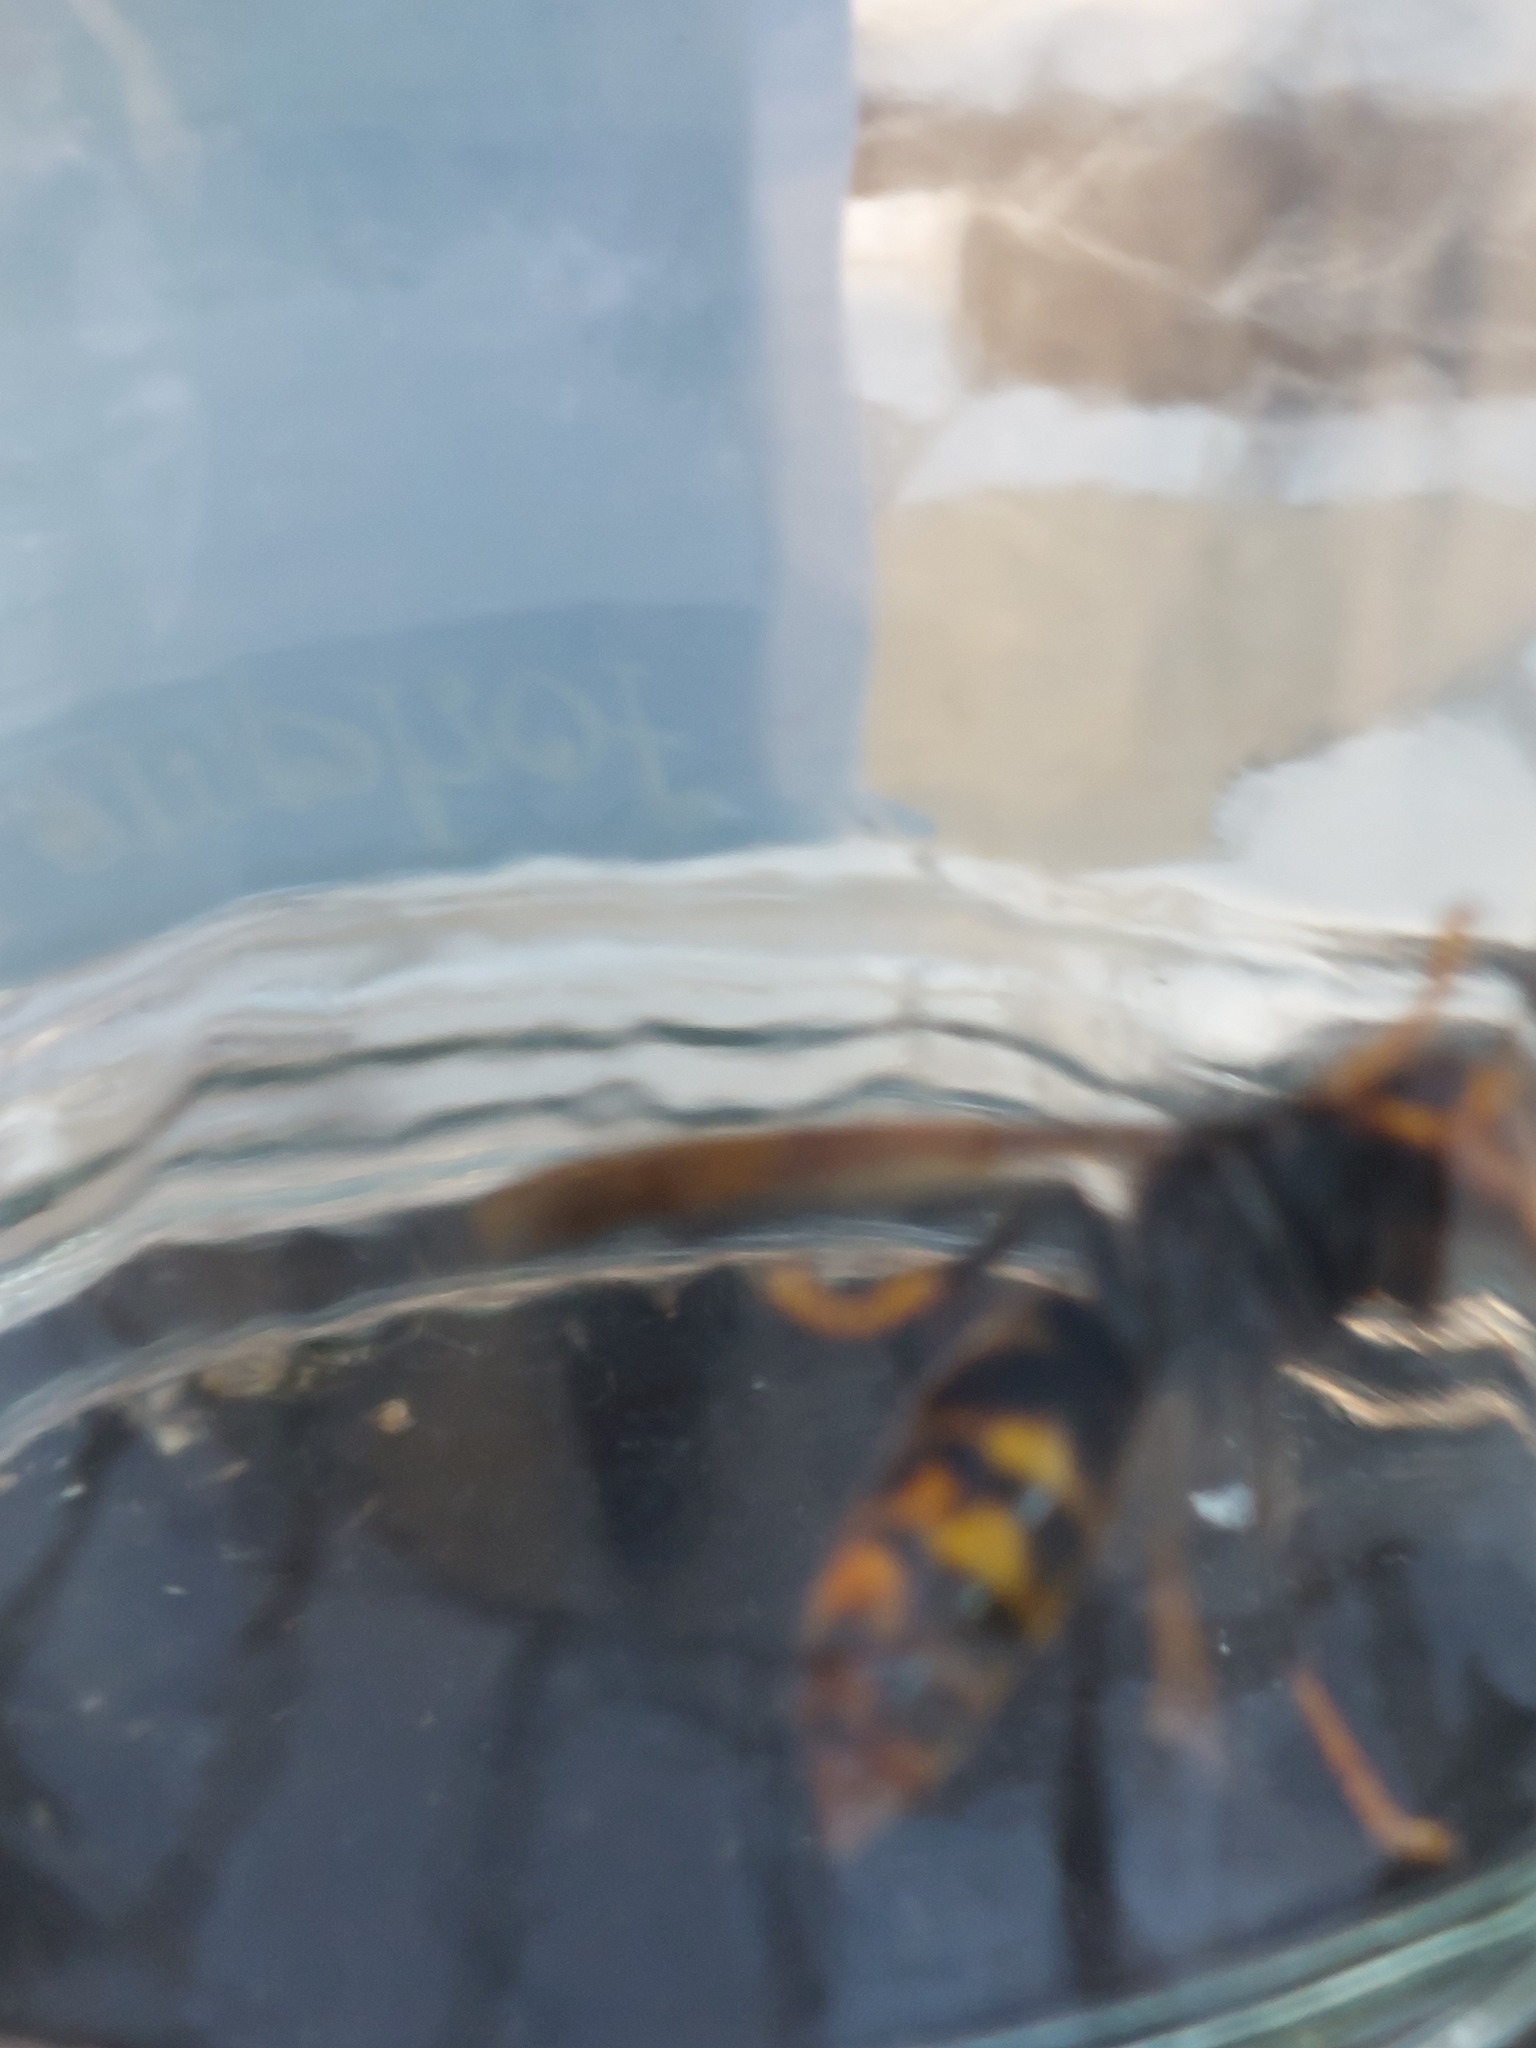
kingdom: Animalia
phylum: Arthropoda
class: Insecta
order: Hymenoptera
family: Vespidae
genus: Vespa
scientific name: Vespa velutina
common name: Asian hornet
